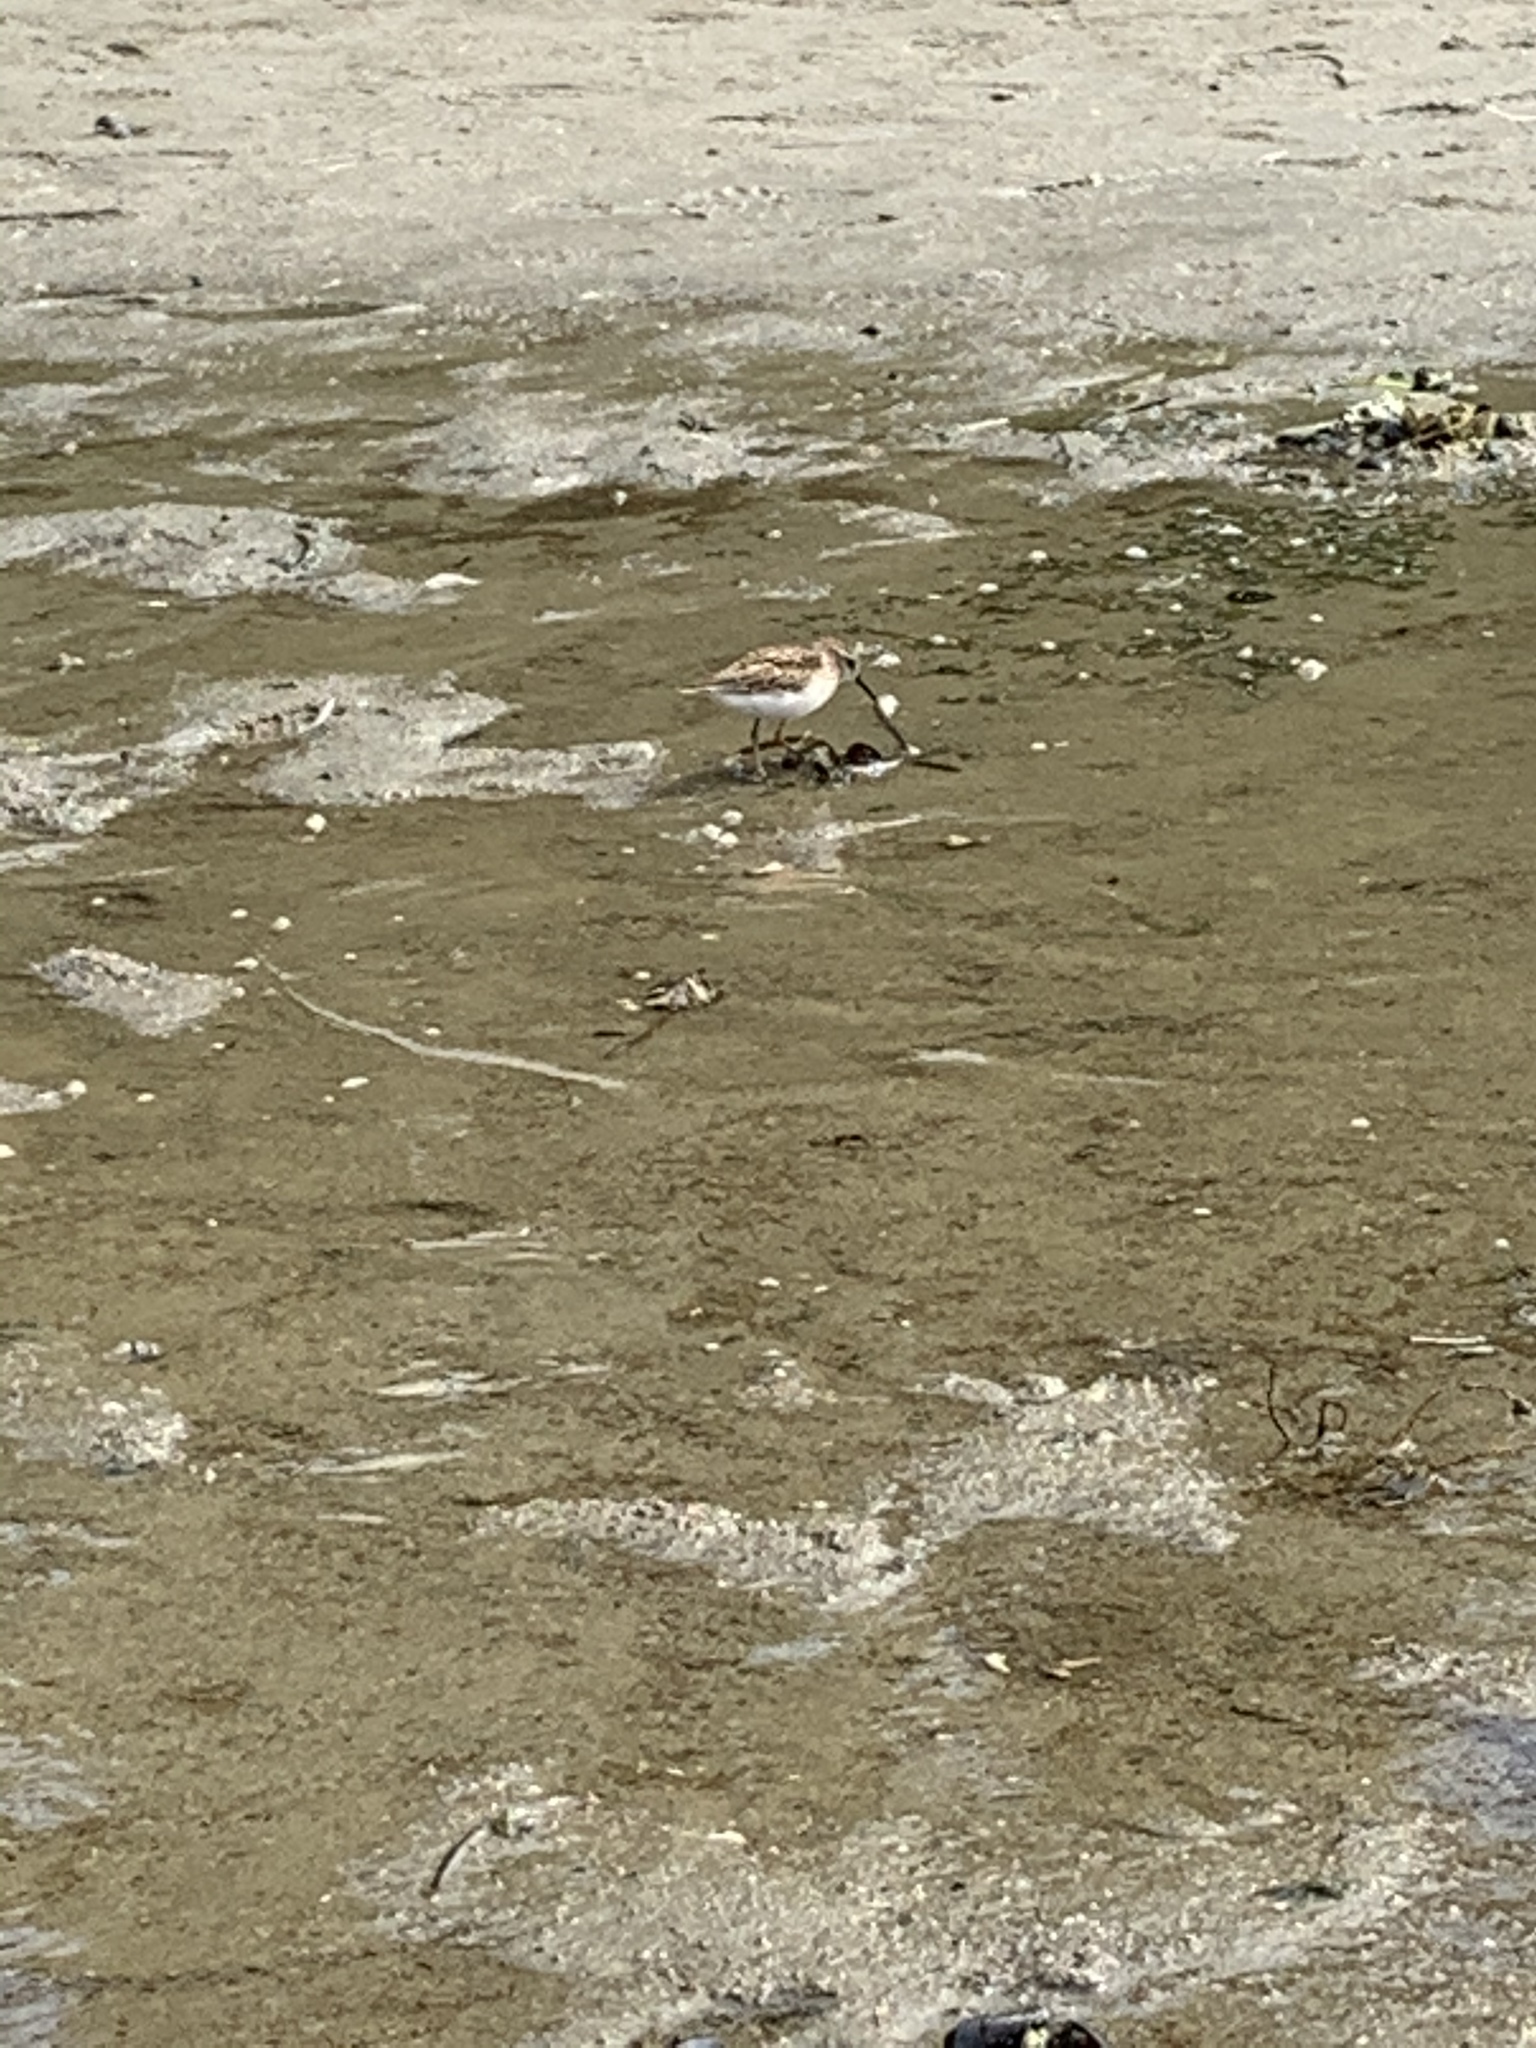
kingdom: Animalia
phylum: Chordata
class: Aves
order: Charadriiformes
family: Scolopacidae
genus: Calidris
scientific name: Calidris minutilla
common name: Least sandpiper
